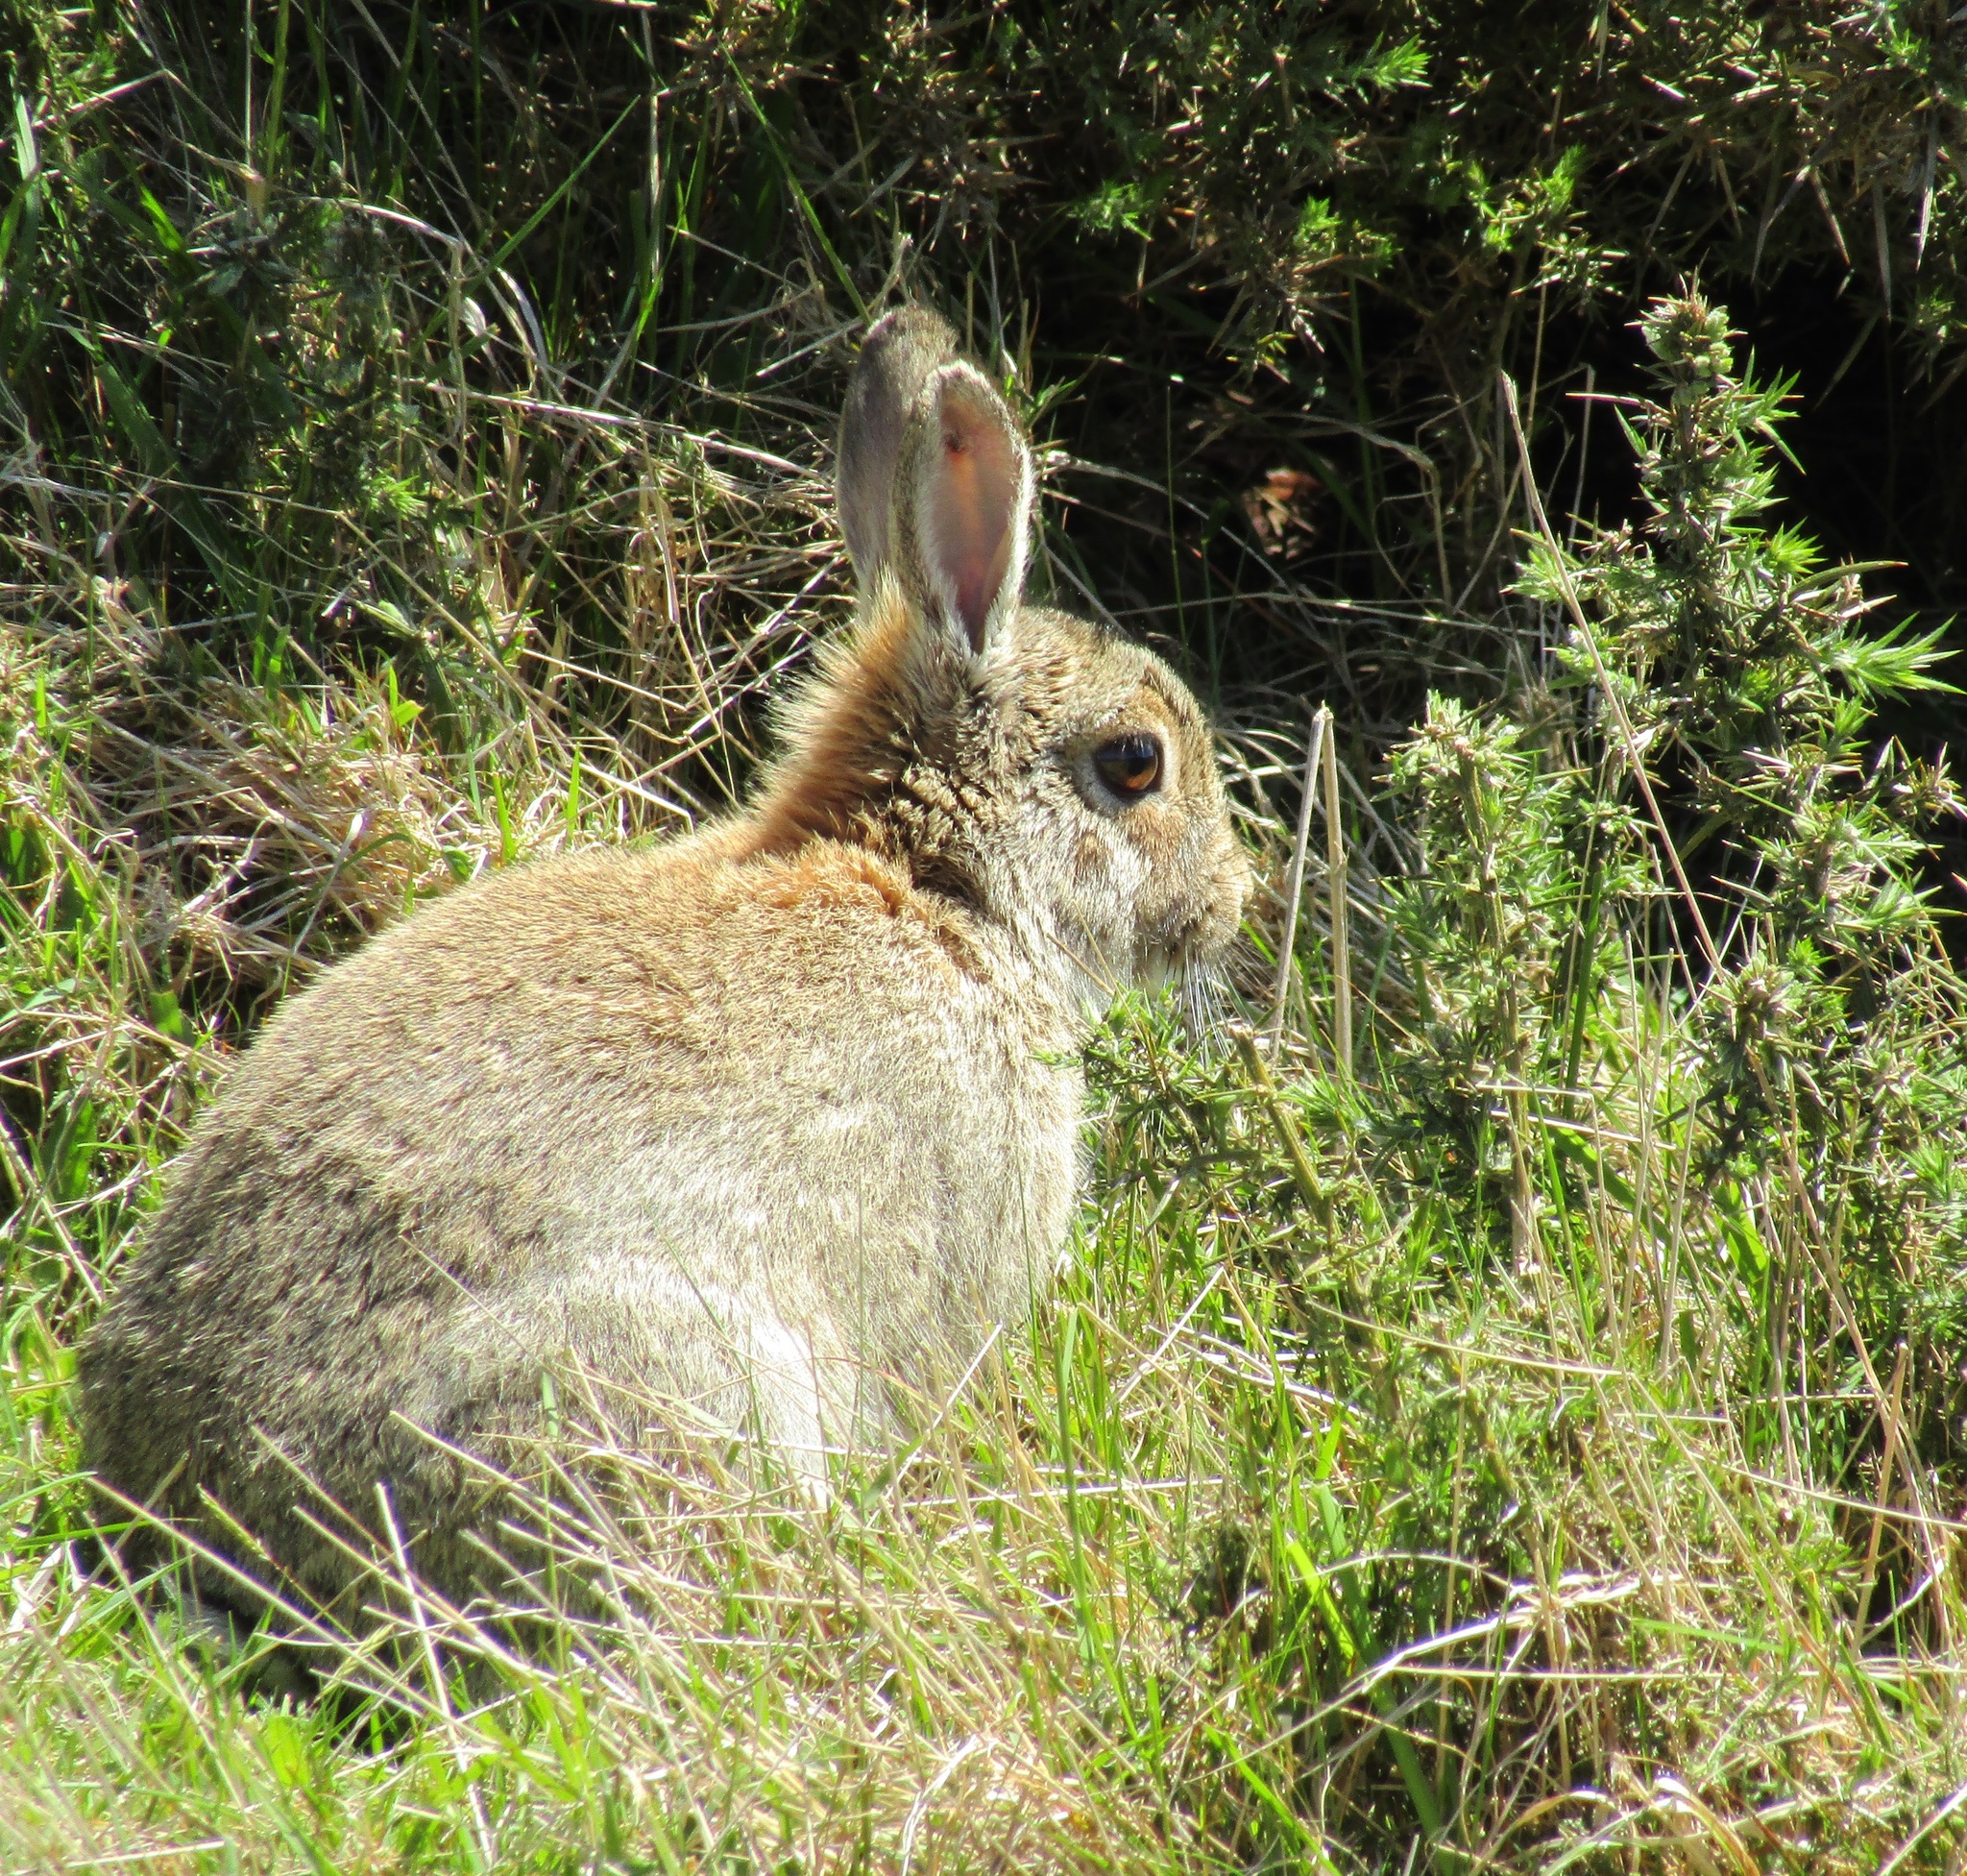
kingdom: Animalia
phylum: Chordata
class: Mammalia
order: Lagomorpha
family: Leporidae
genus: Oryctolagus
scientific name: Oryctolagus cuniculus
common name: European rabbit
